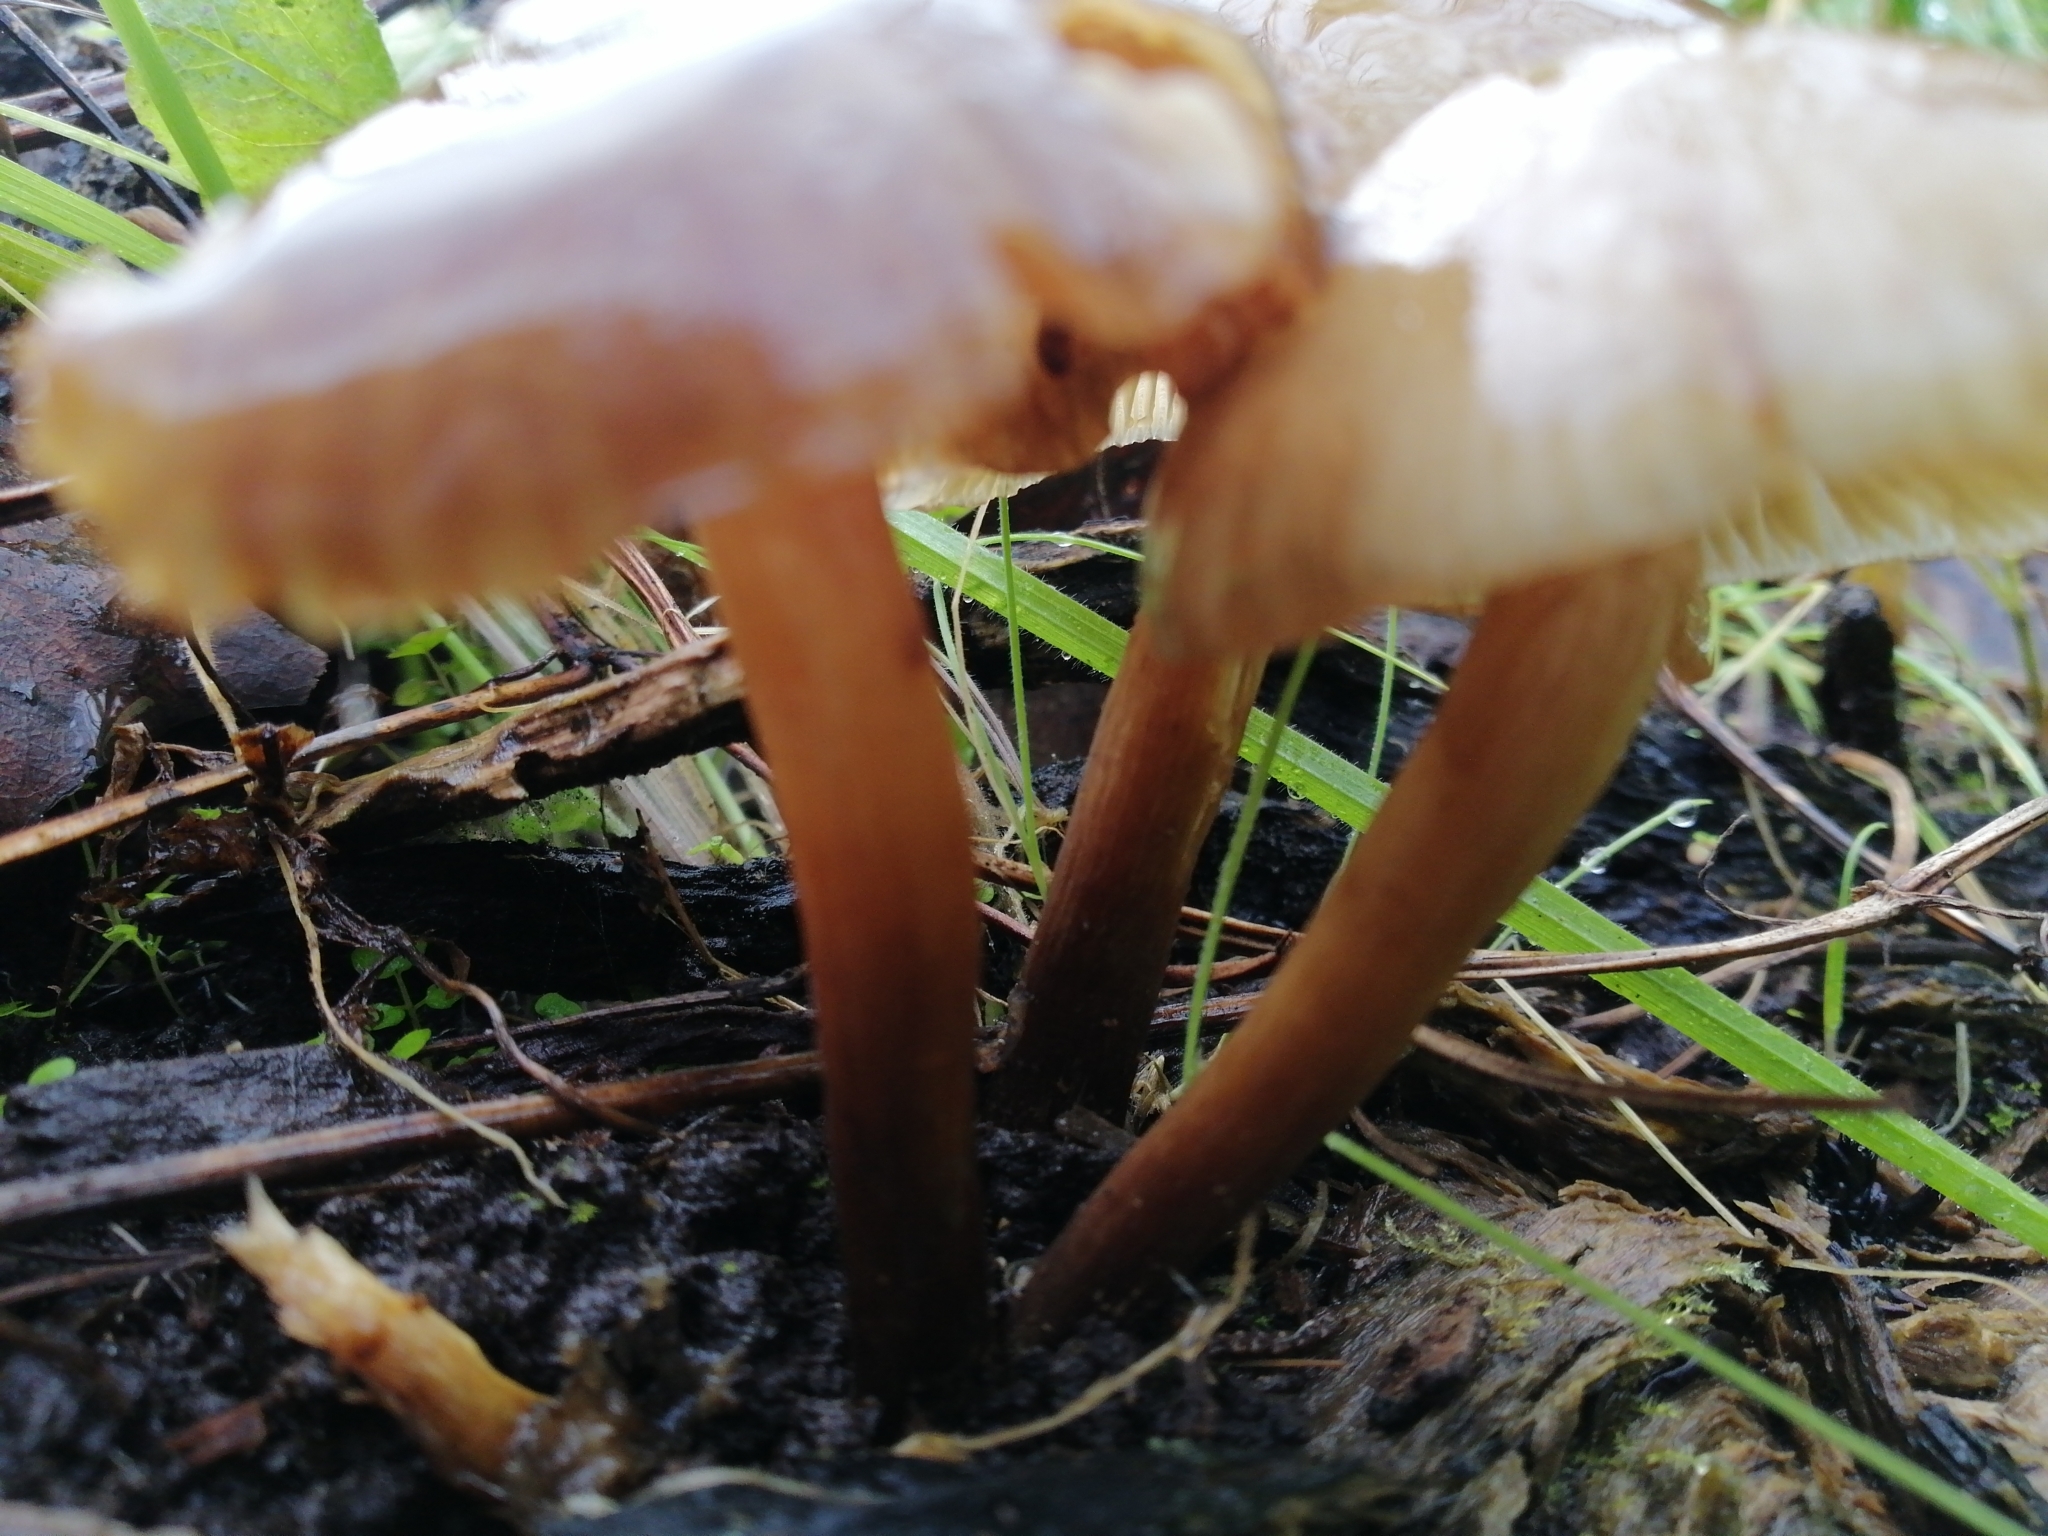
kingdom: Fungi
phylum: Basidiomycota
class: Agaricomycetes
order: Agaricales
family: Physalacriaceae
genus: Armillaria
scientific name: Armillaria novae-zelandiae
